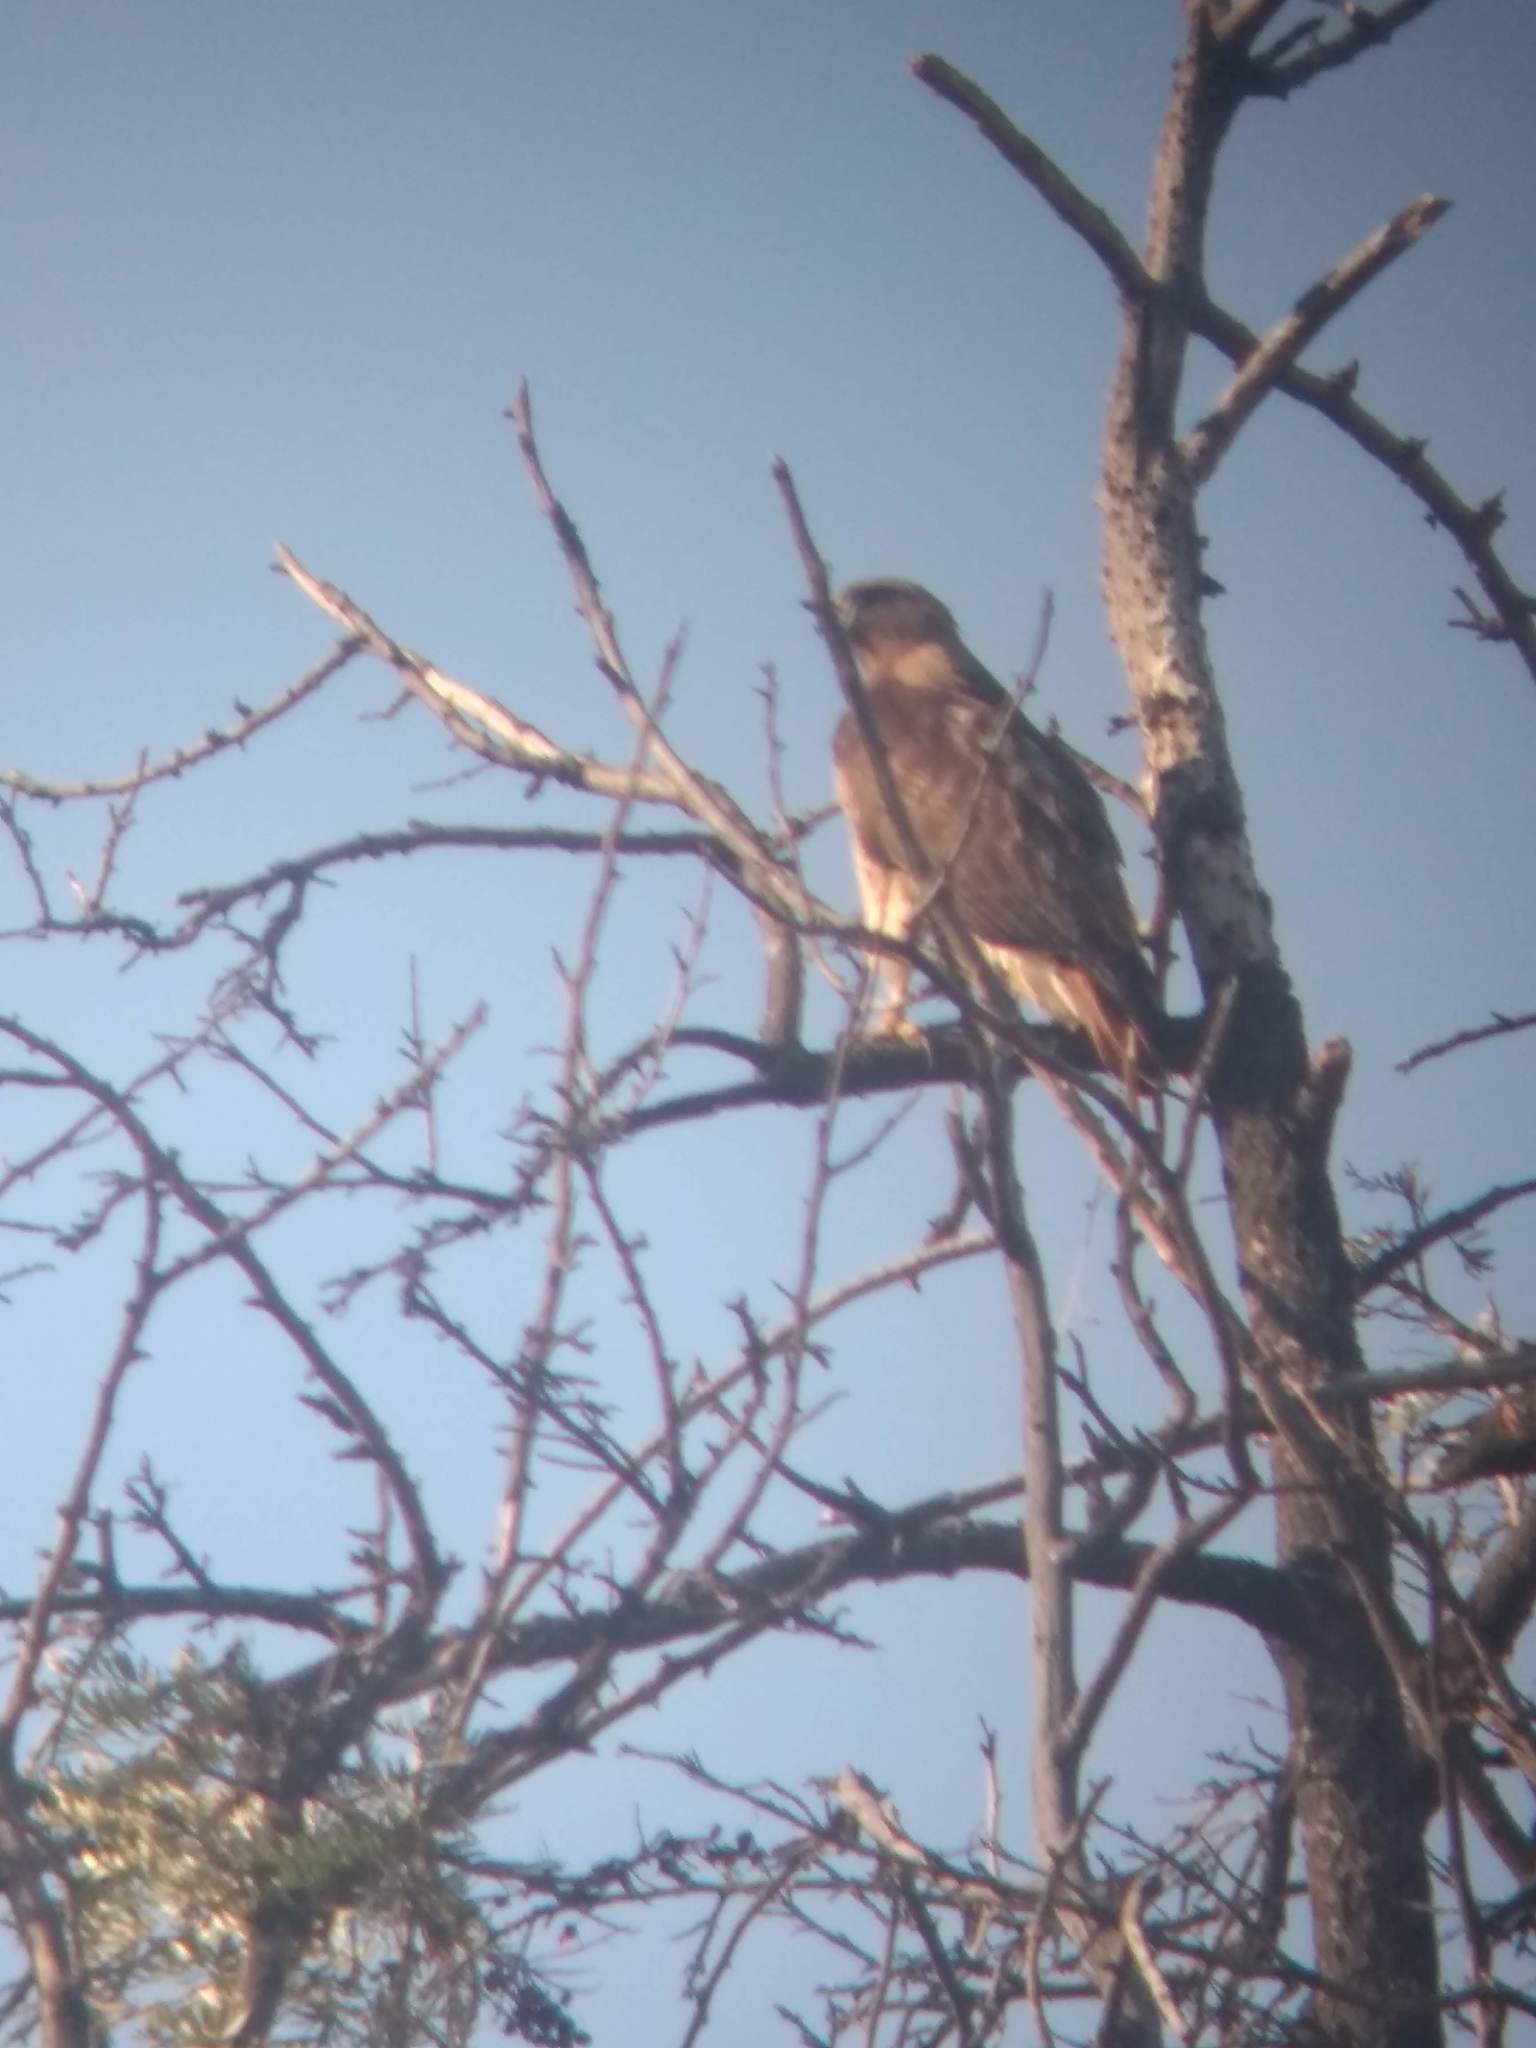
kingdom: Animalia
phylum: Chordata
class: Aves
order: Accipitriformes
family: Accipitridae
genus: Buteo
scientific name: Buteo jamaicensis
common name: Red-tailed hawk
